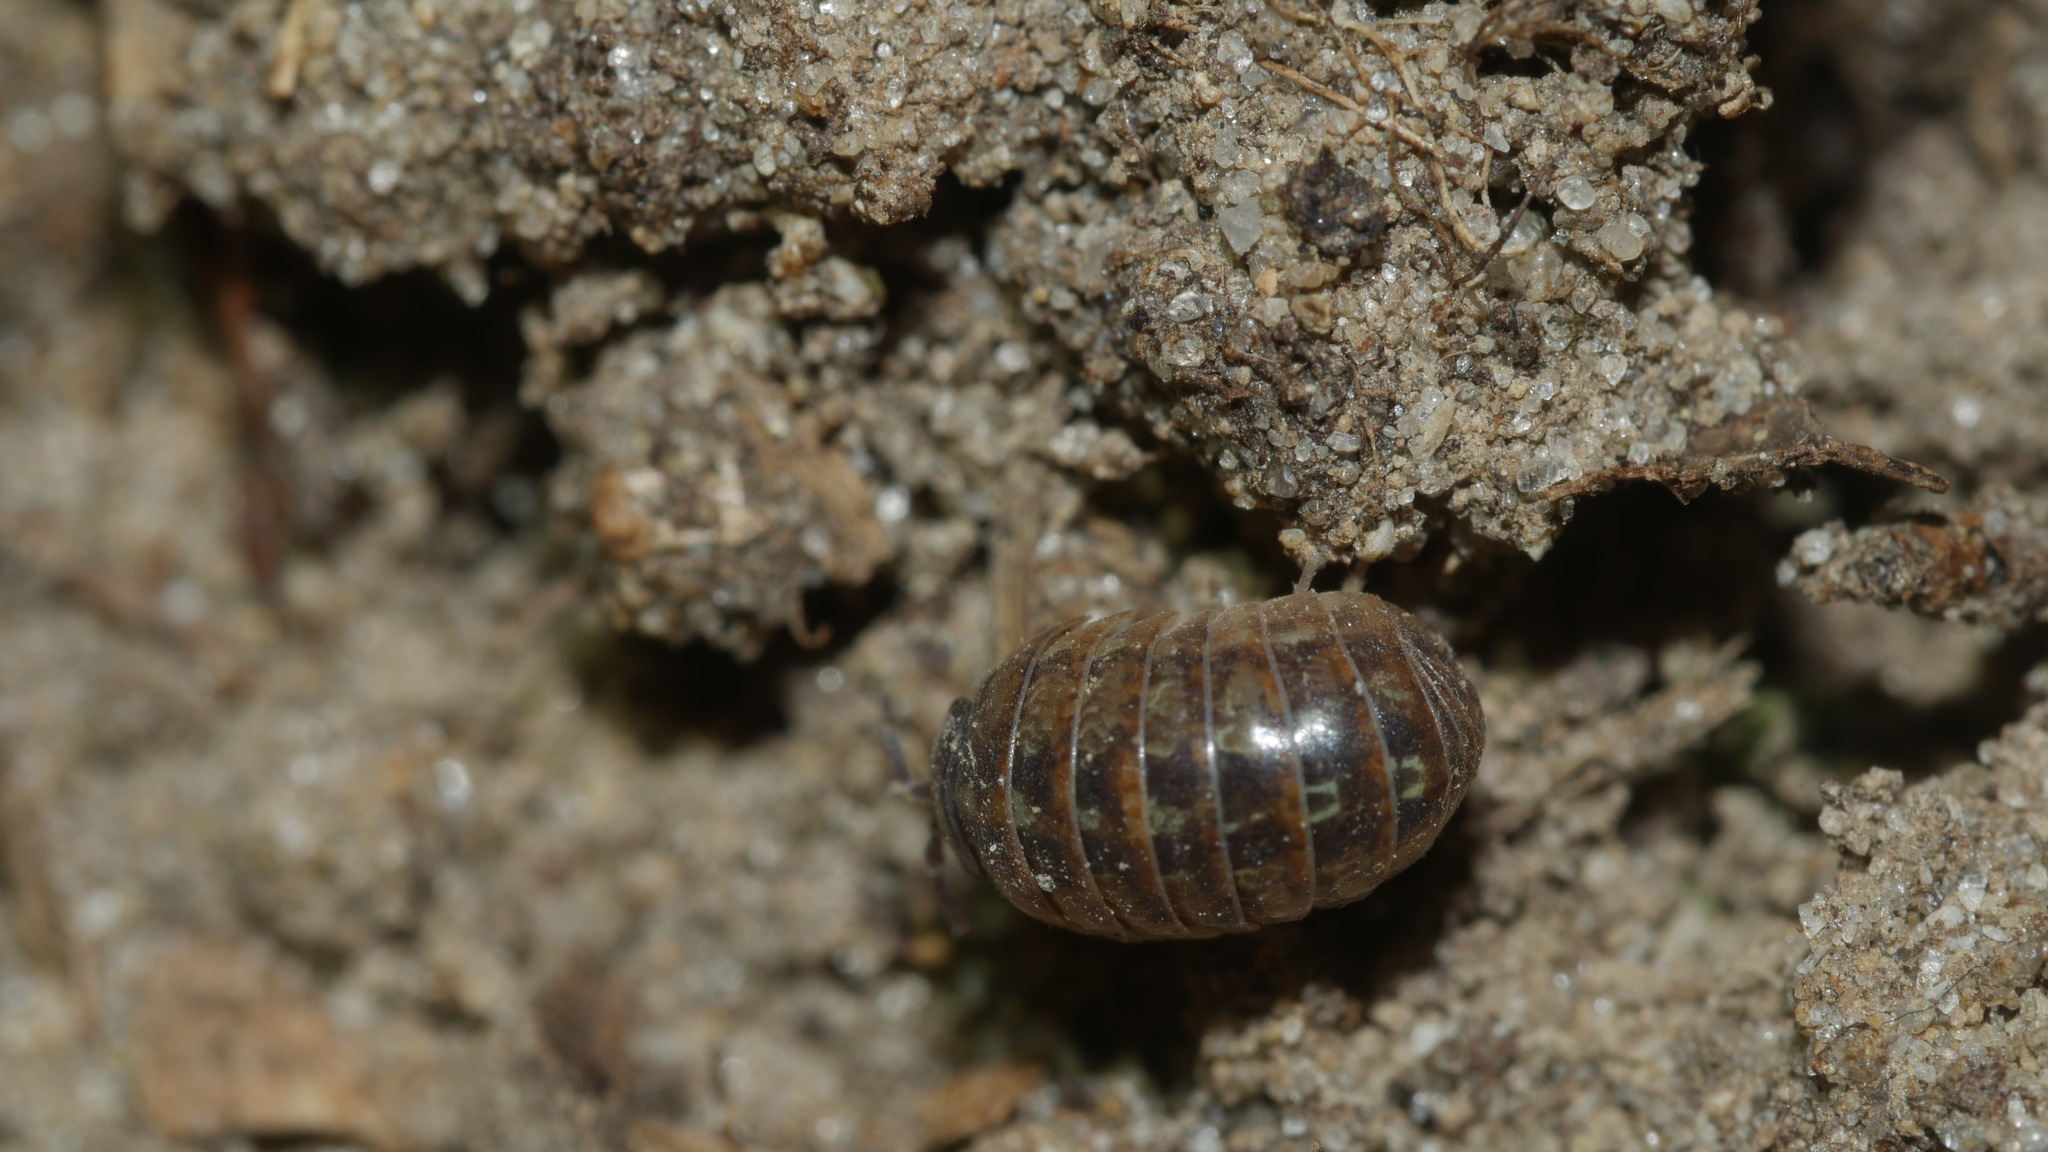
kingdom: Animalia
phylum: Arthropoda
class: Malacostraca
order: Isopoda
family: Armadillidiidae
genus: Armadillidium
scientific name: Armadillidium vulgare
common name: Common pill woodlouse
